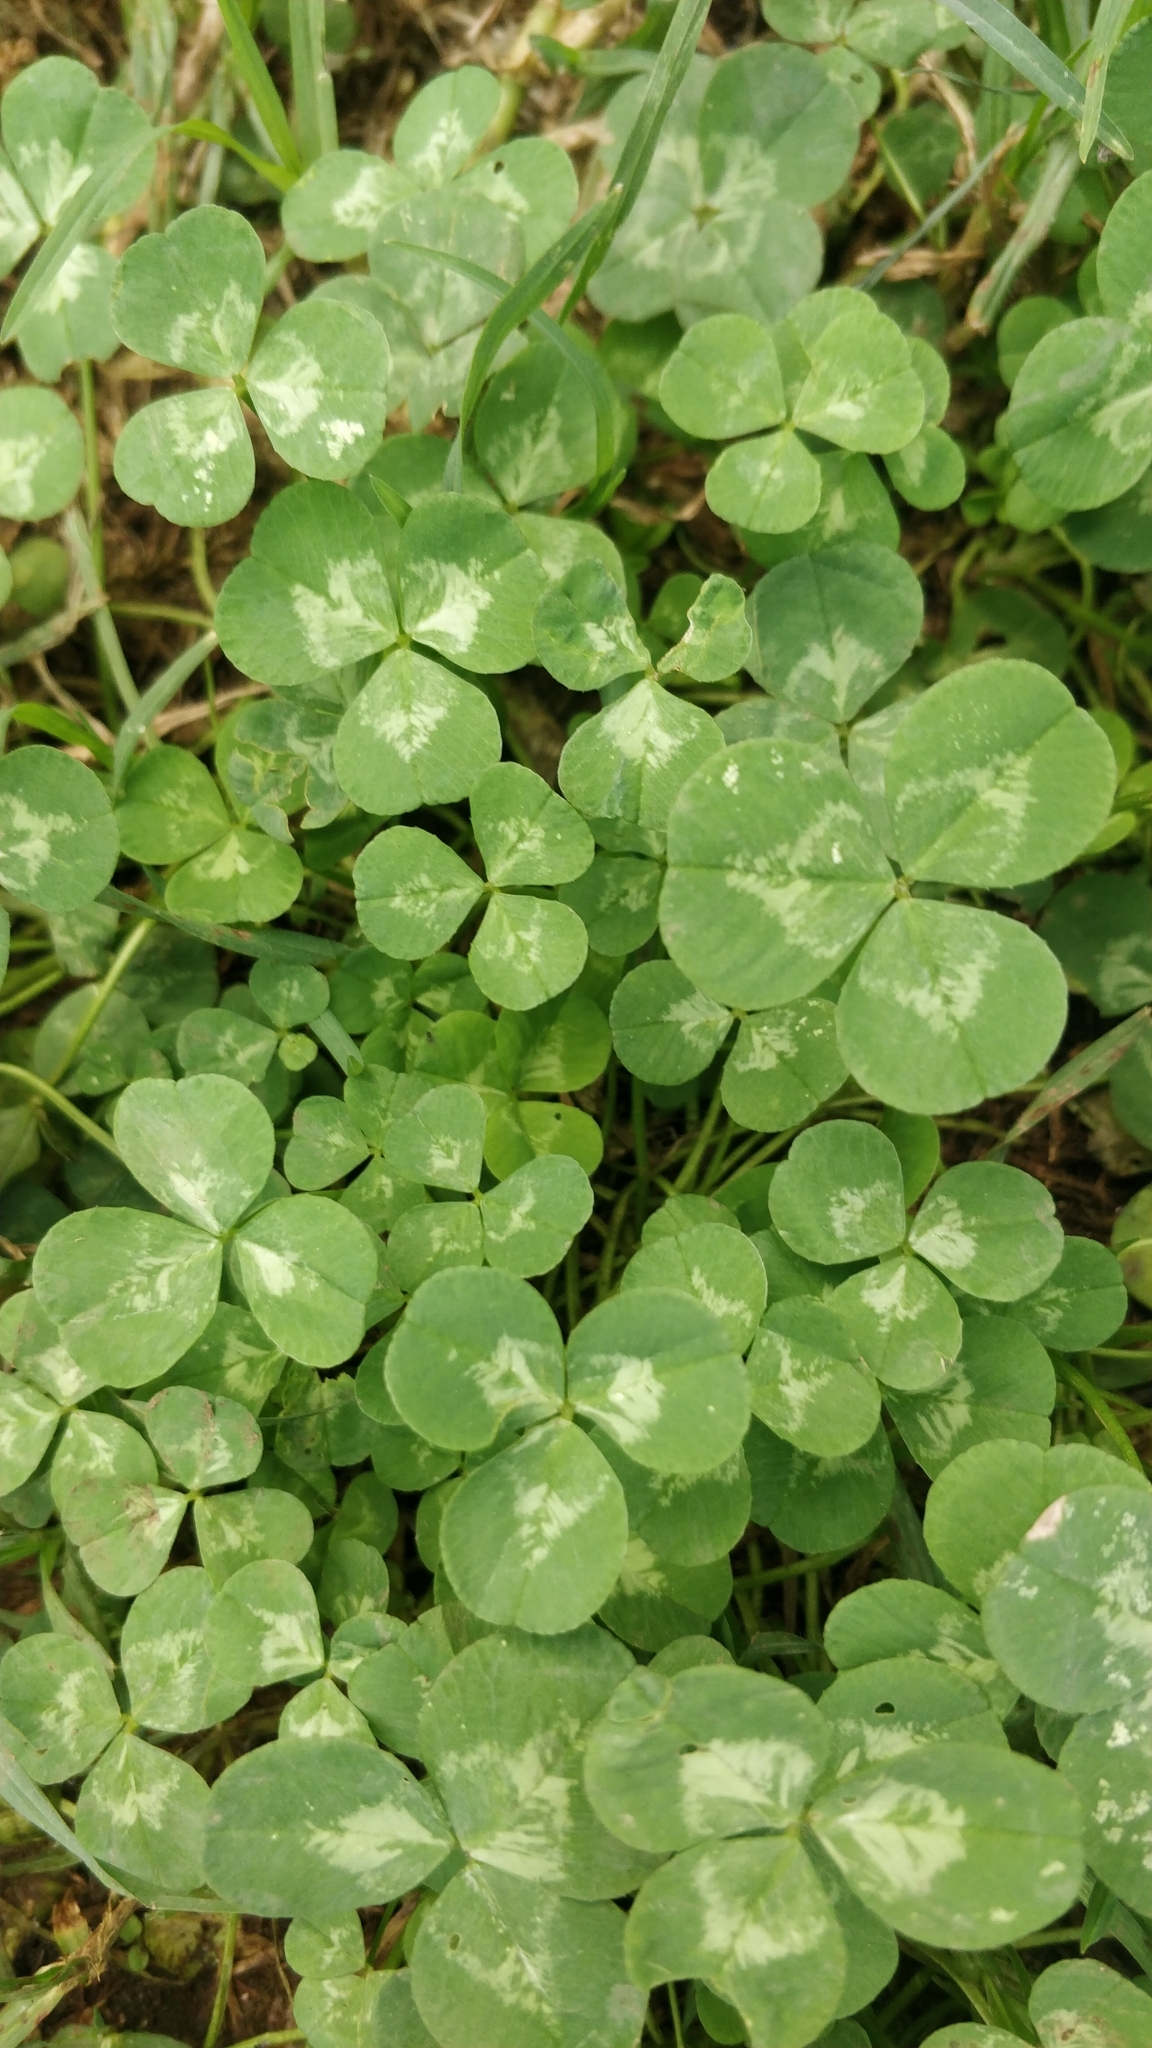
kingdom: Plantae
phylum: Tracheophyta
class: Magnoliopsida
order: Fabales
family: Fabaceae
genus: Trifolium
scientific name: Trifolium repens
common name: White clover
